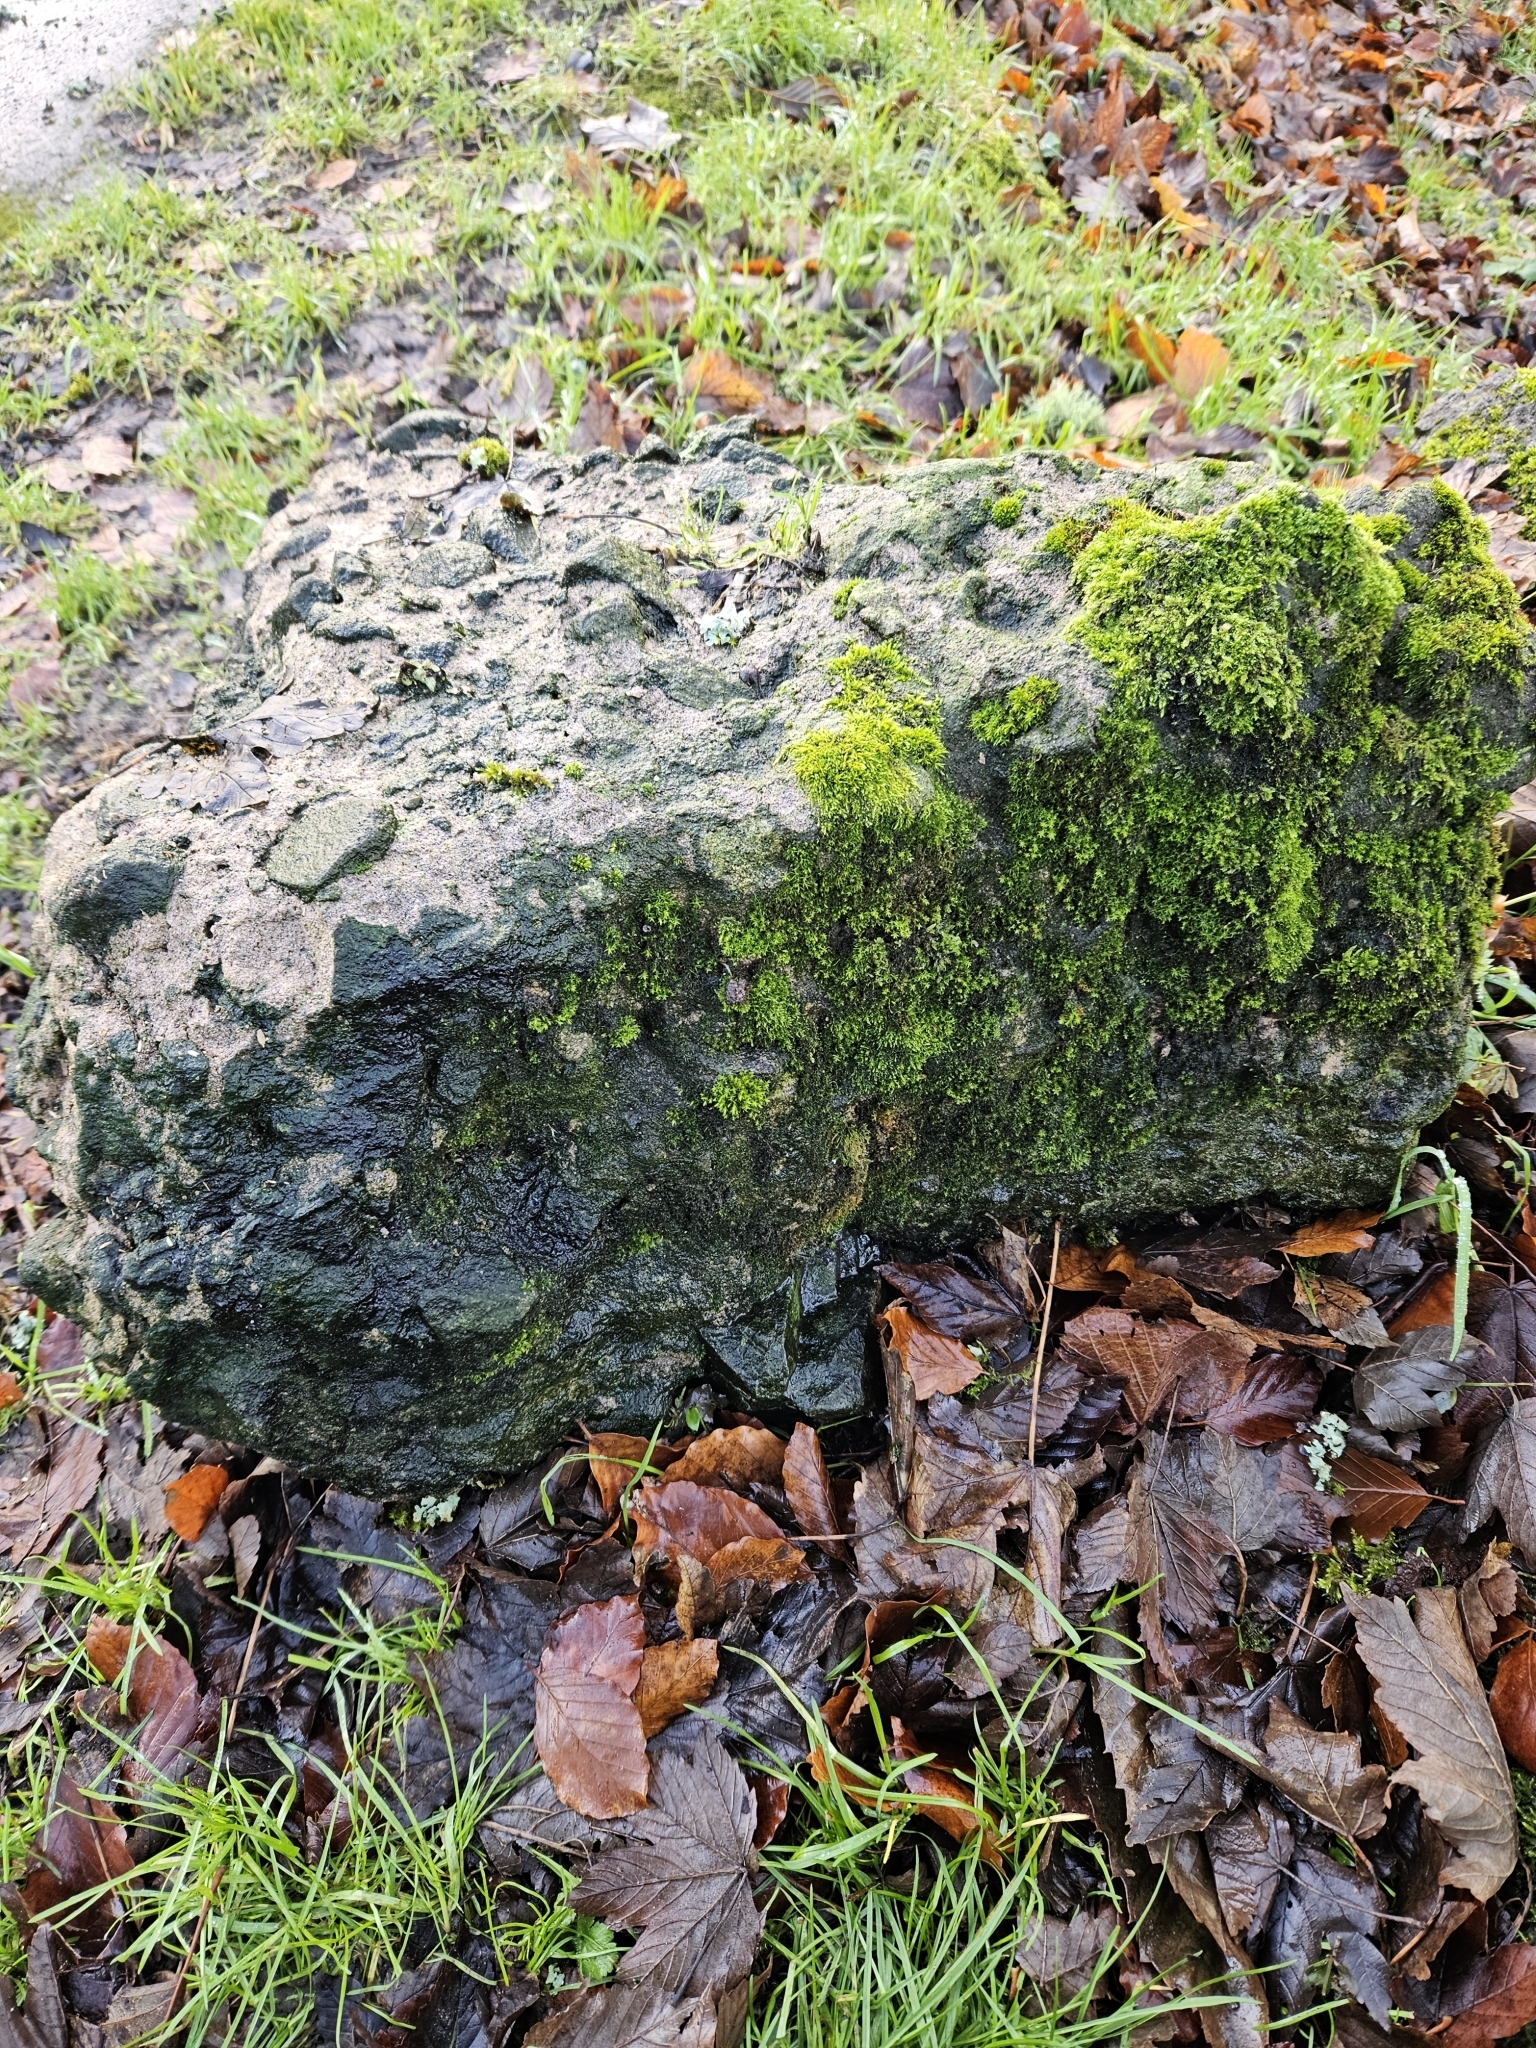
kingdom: Plantae
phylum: Bryophyta
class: Bryopsida
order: Pottiales
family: Pottiaceae
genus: Tortula
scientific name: Tortula muralis
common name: Wall screw-moss
